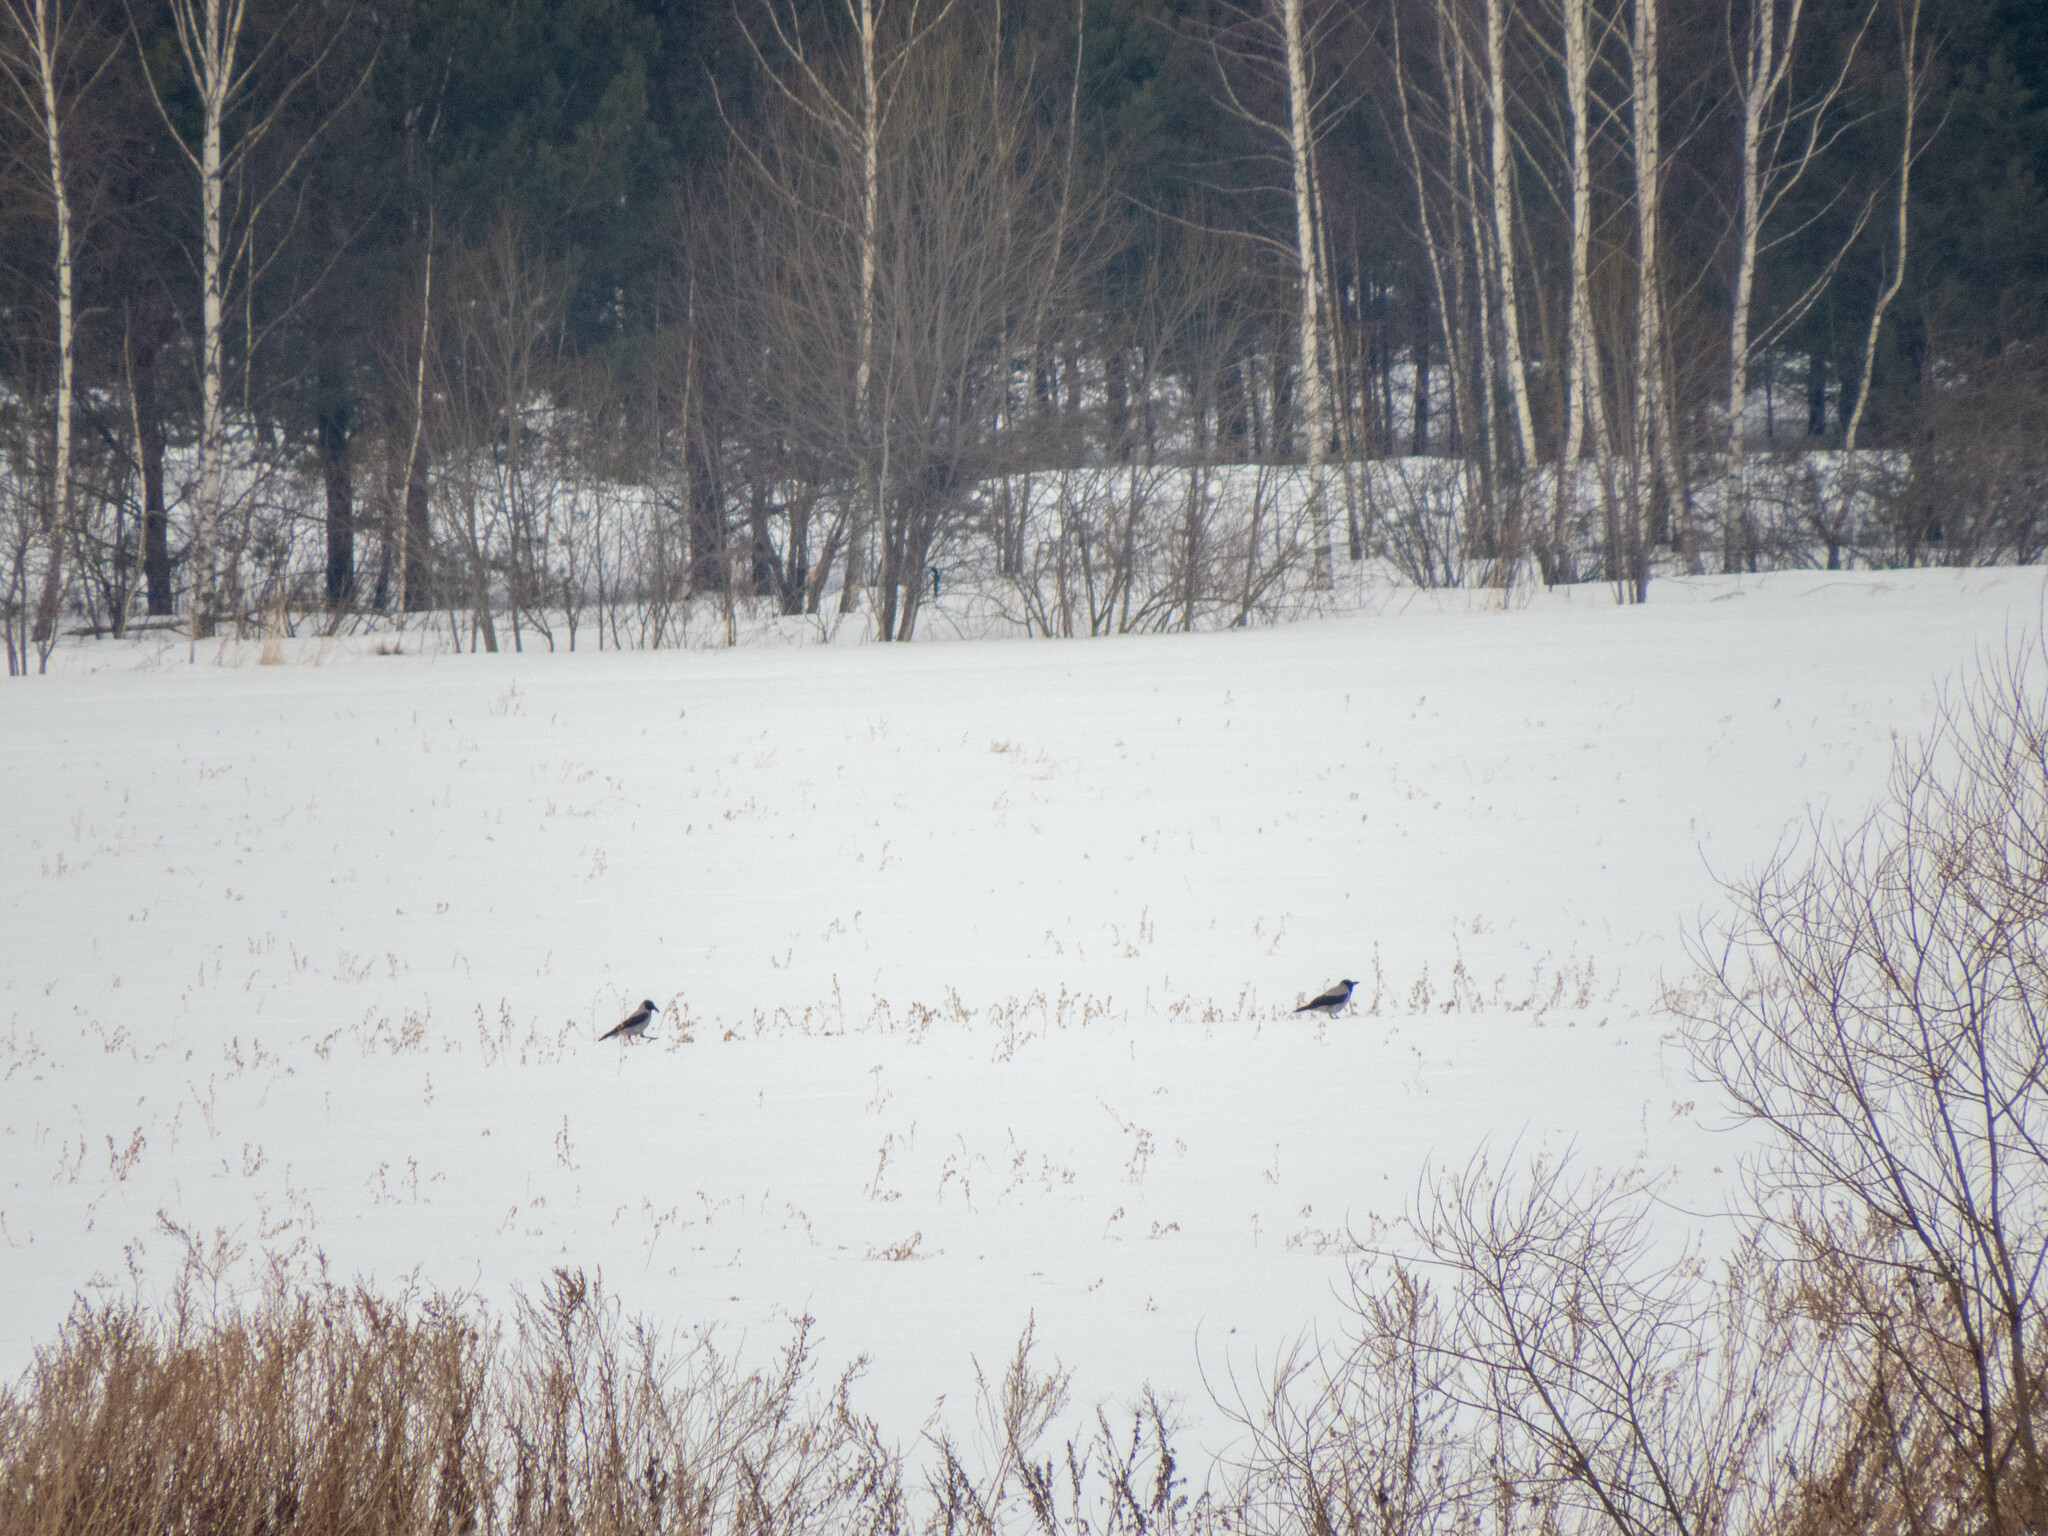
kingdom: Animalia
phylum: Chordata
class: Aves
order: Passeriformes
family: Corvidae
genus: Corvus
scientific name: Corvus cornix
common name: Hooded crow
